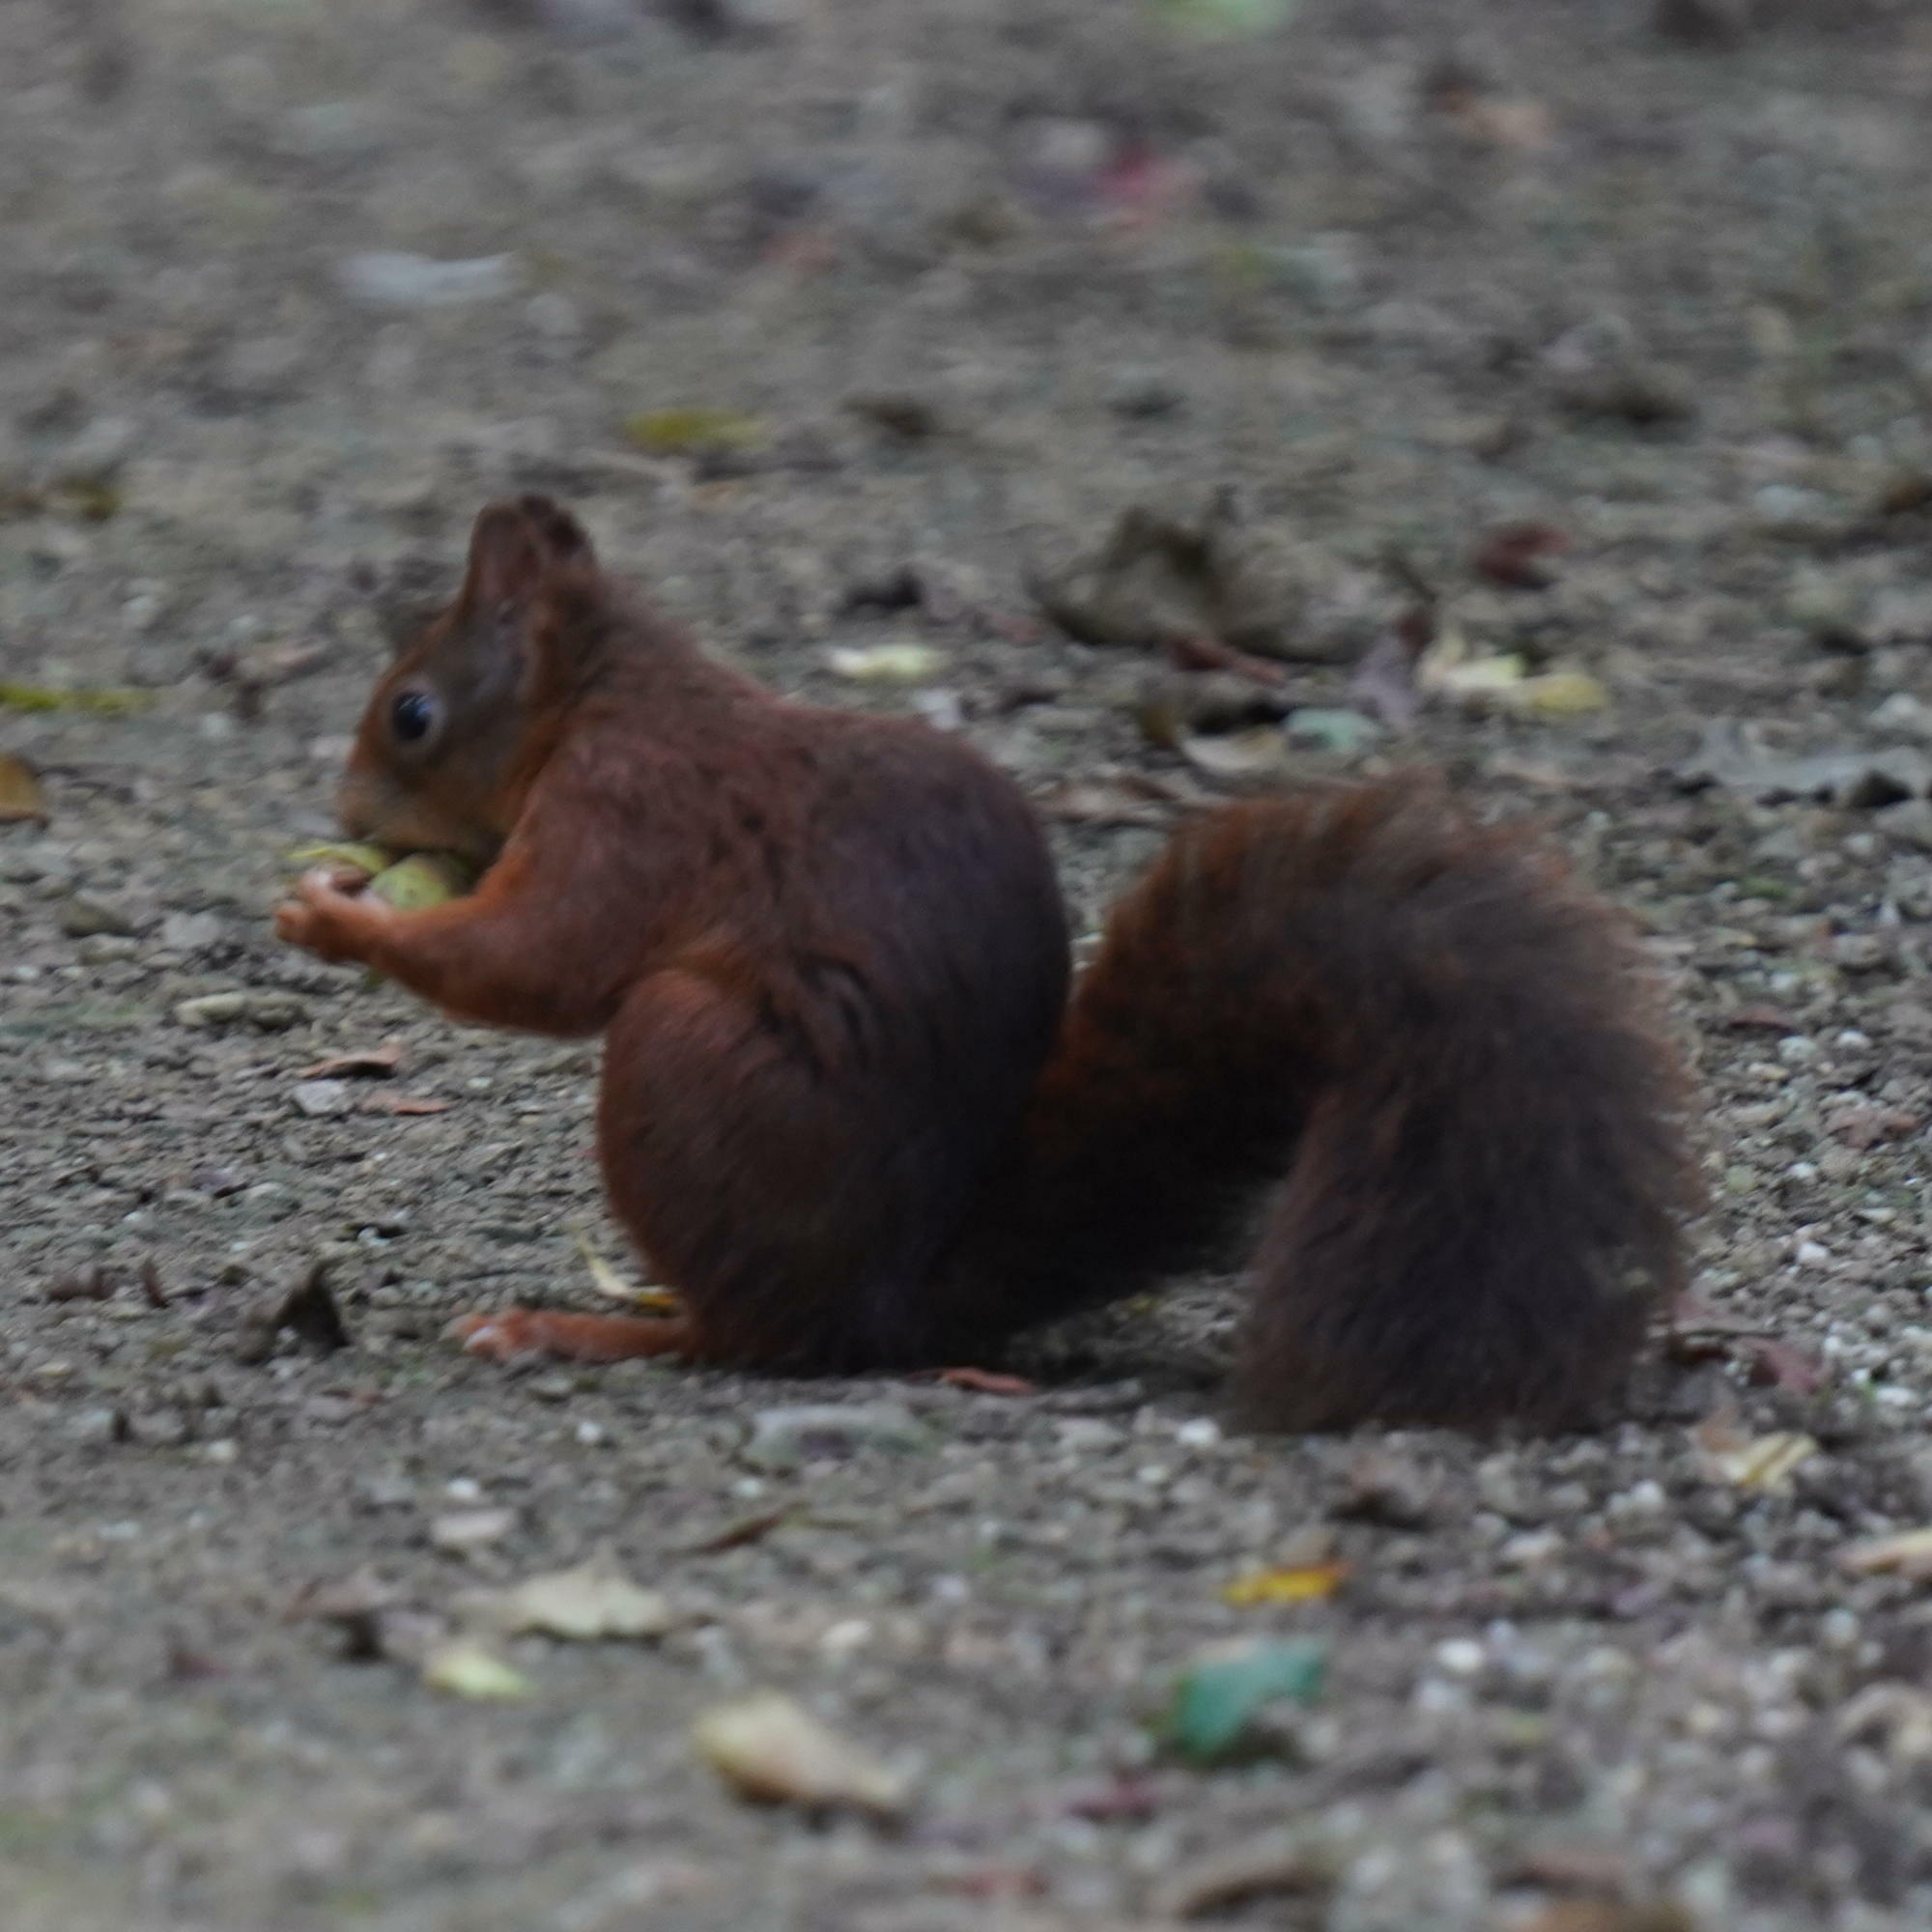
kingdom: Animalia
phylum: Chordata
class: Mammalia
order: Rodentia
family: Sciuridae
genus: Sciurus
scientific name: Sciurus vulgaris
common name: Eurasian red squirrel
